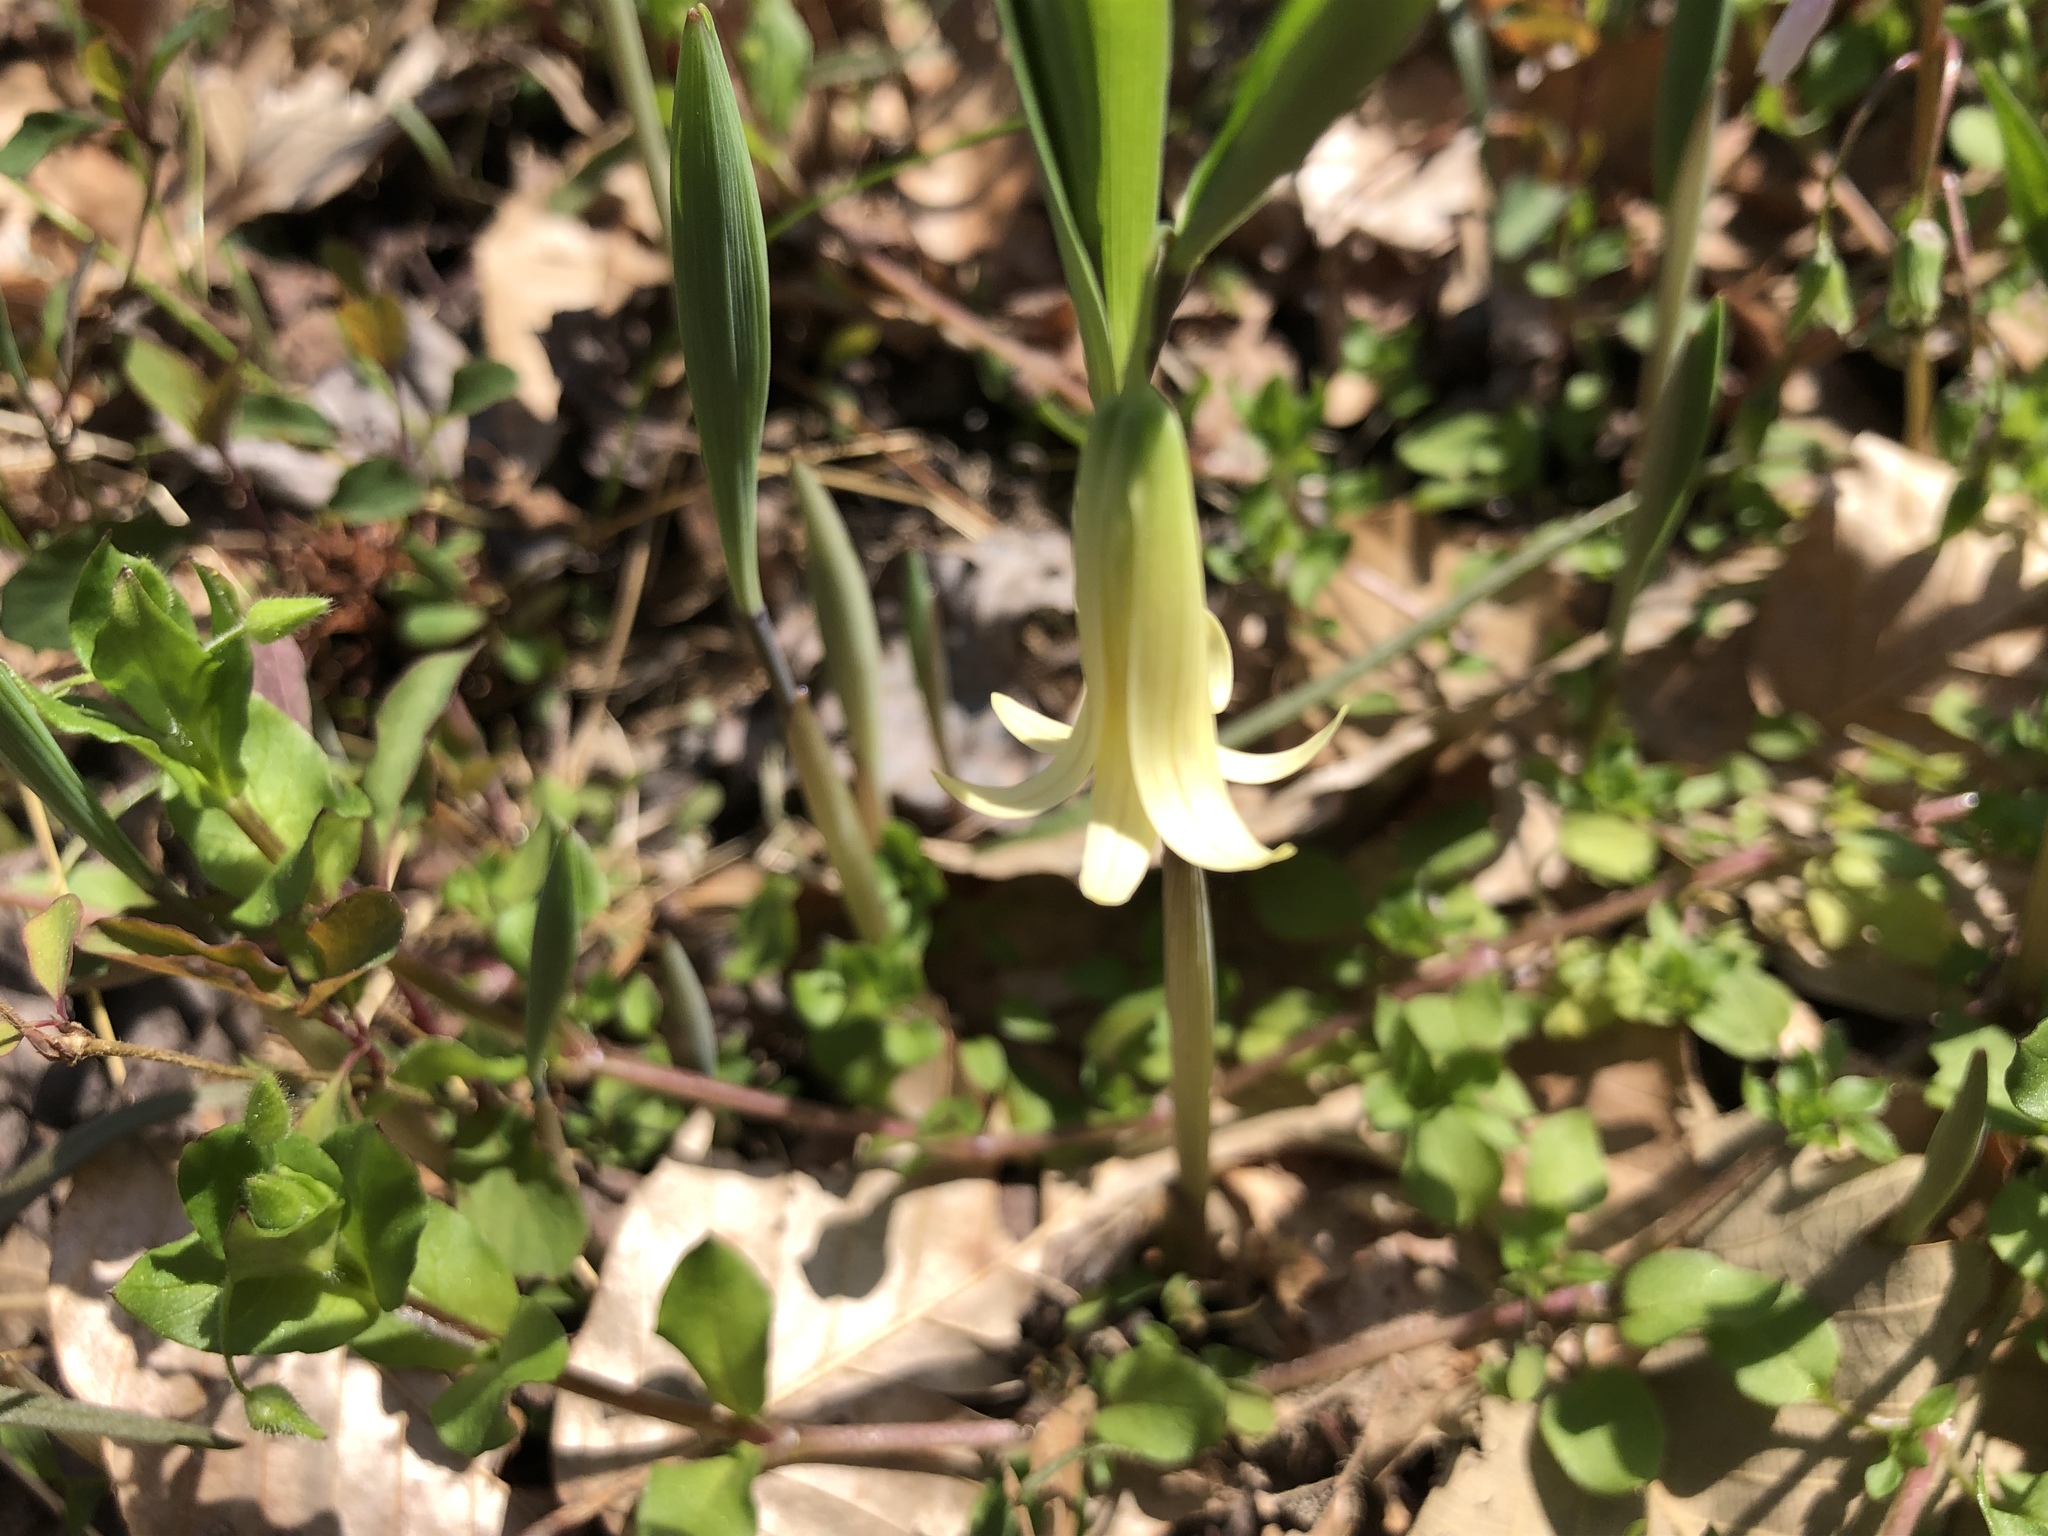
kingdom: Plantae
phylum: Tracheophyta
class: Liliopsida
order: Liliales
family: Colchicaceae
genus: Uvularia
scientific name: Uvularia sessilifolia
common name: Straw-lily
